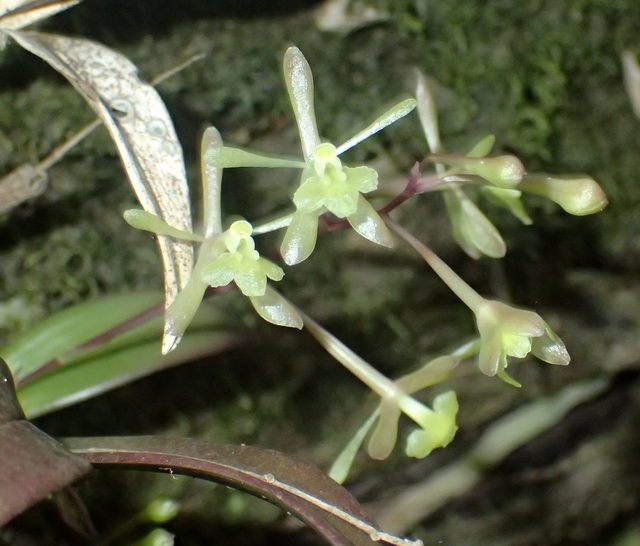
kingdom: Plantae
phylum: Tracheophyta
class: Liliopsida
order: Asparagales
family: Orchidaceae
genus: Epidendrum
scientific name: Epidendrum conopseum
